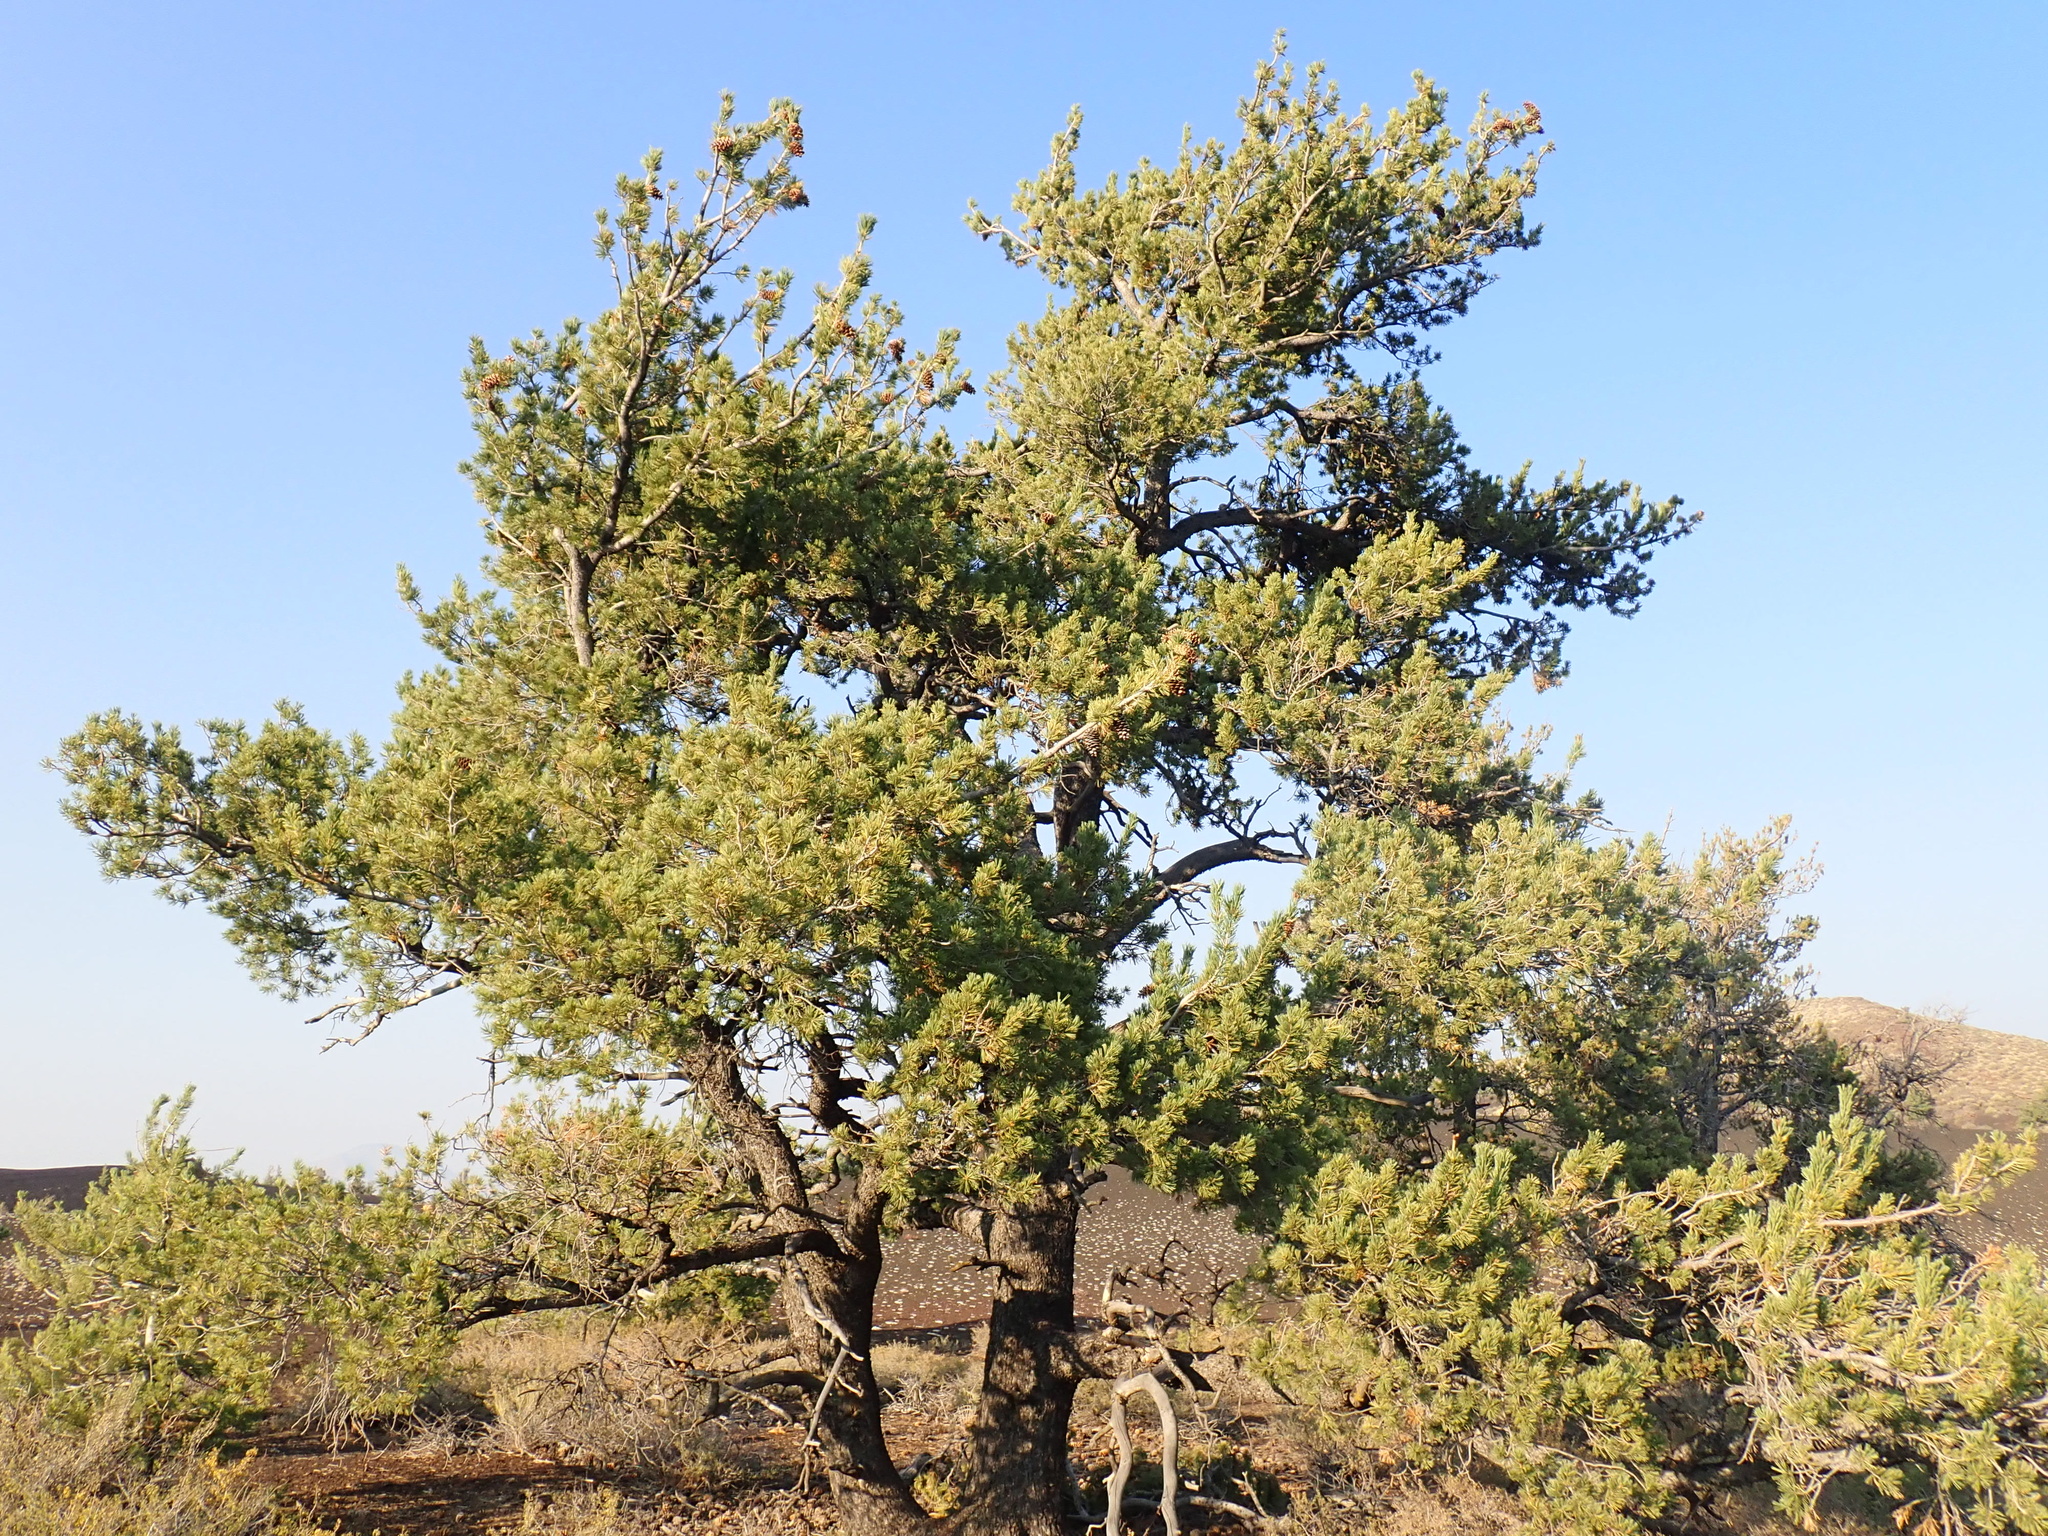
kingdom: Plantae
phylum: Tracheophyta
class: Pinopsida
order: Pinales
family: Pinaceae
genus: Pinus
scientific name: Pinus flexilis
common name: Limber pine
